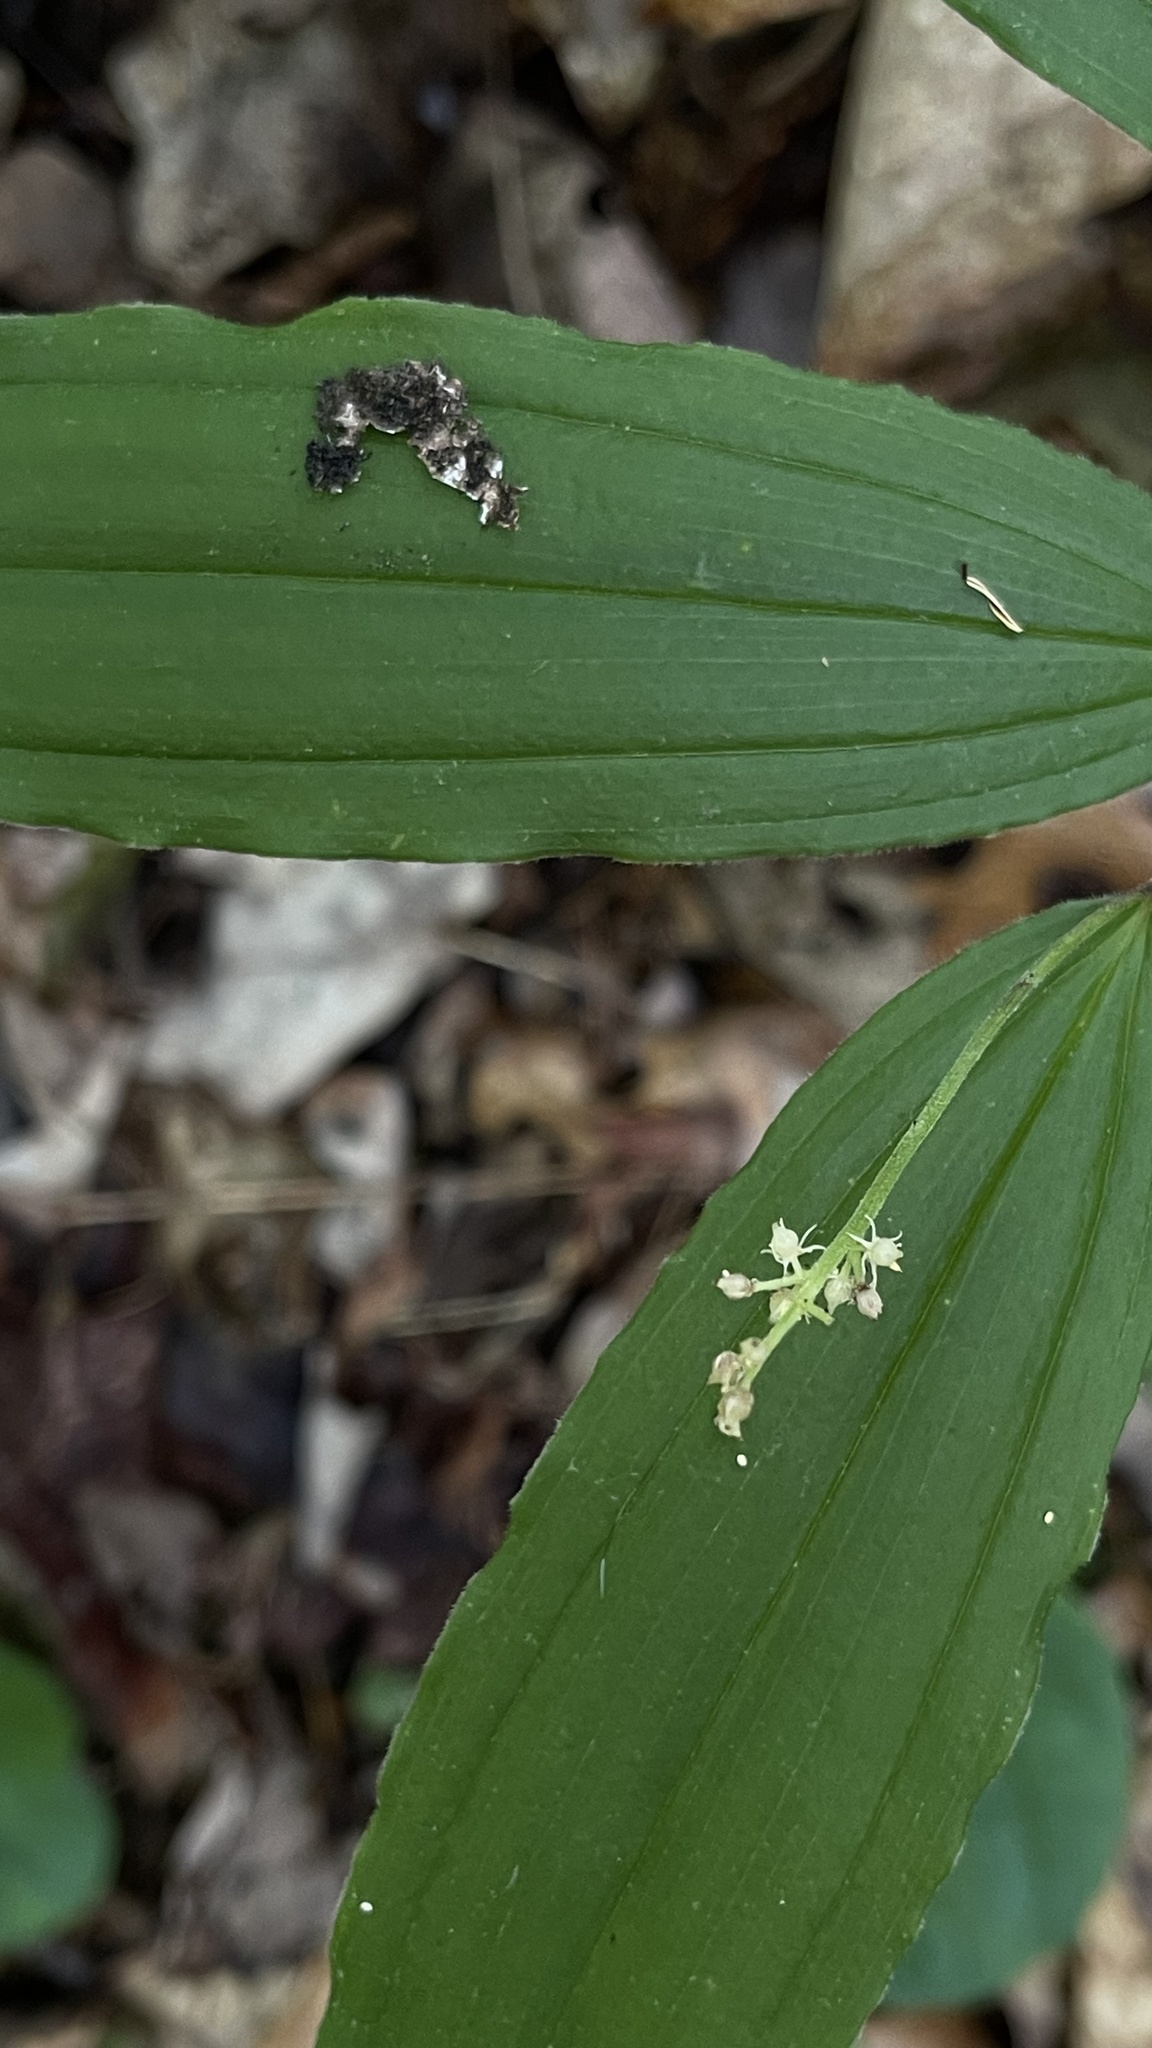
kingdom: Plantae
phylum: Tracheophyta
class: Liliopsida
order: Asparagales
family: Asparagaceae
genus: Maianthemum
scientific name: Maianthemum racemosum
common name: False spikenard
